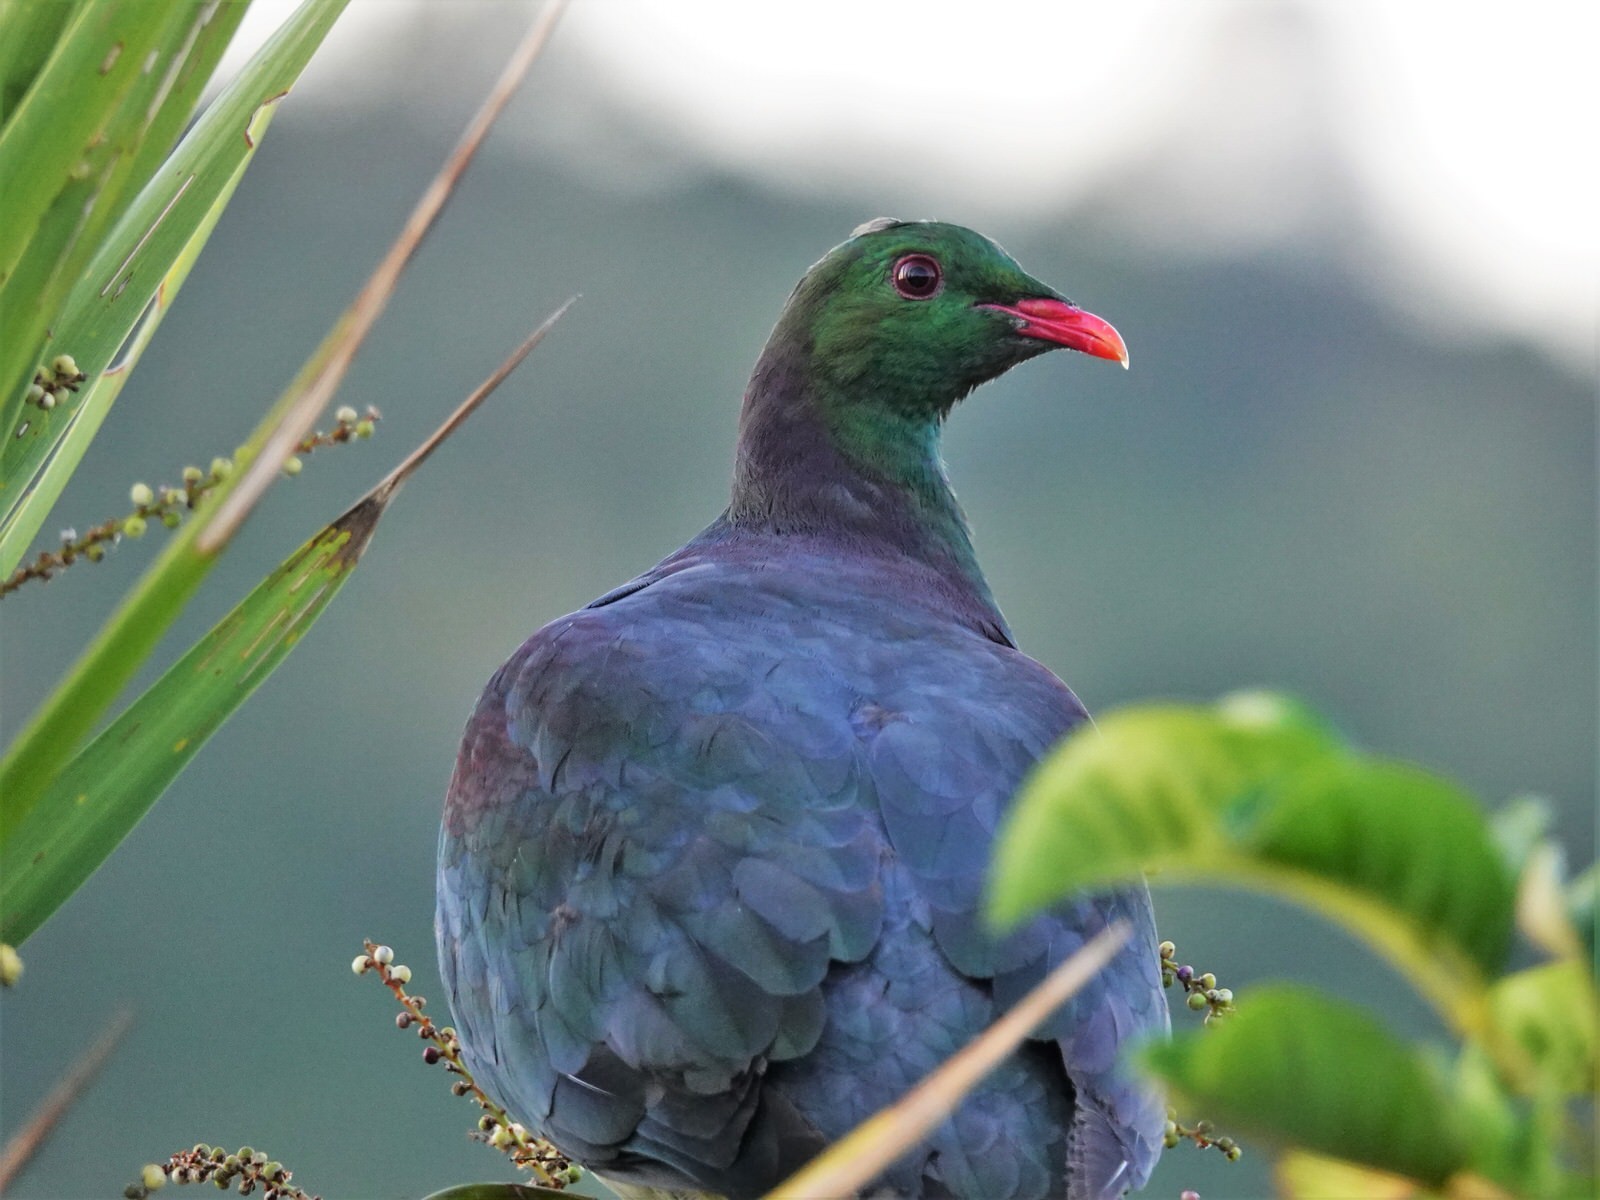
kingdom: Animalia
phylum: Chordata
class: Aves
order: Columbiformes
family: Columbidae
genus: Hemiphaga
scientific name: Hemiphaga novaeseelandiae
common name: New zealand pigeon
